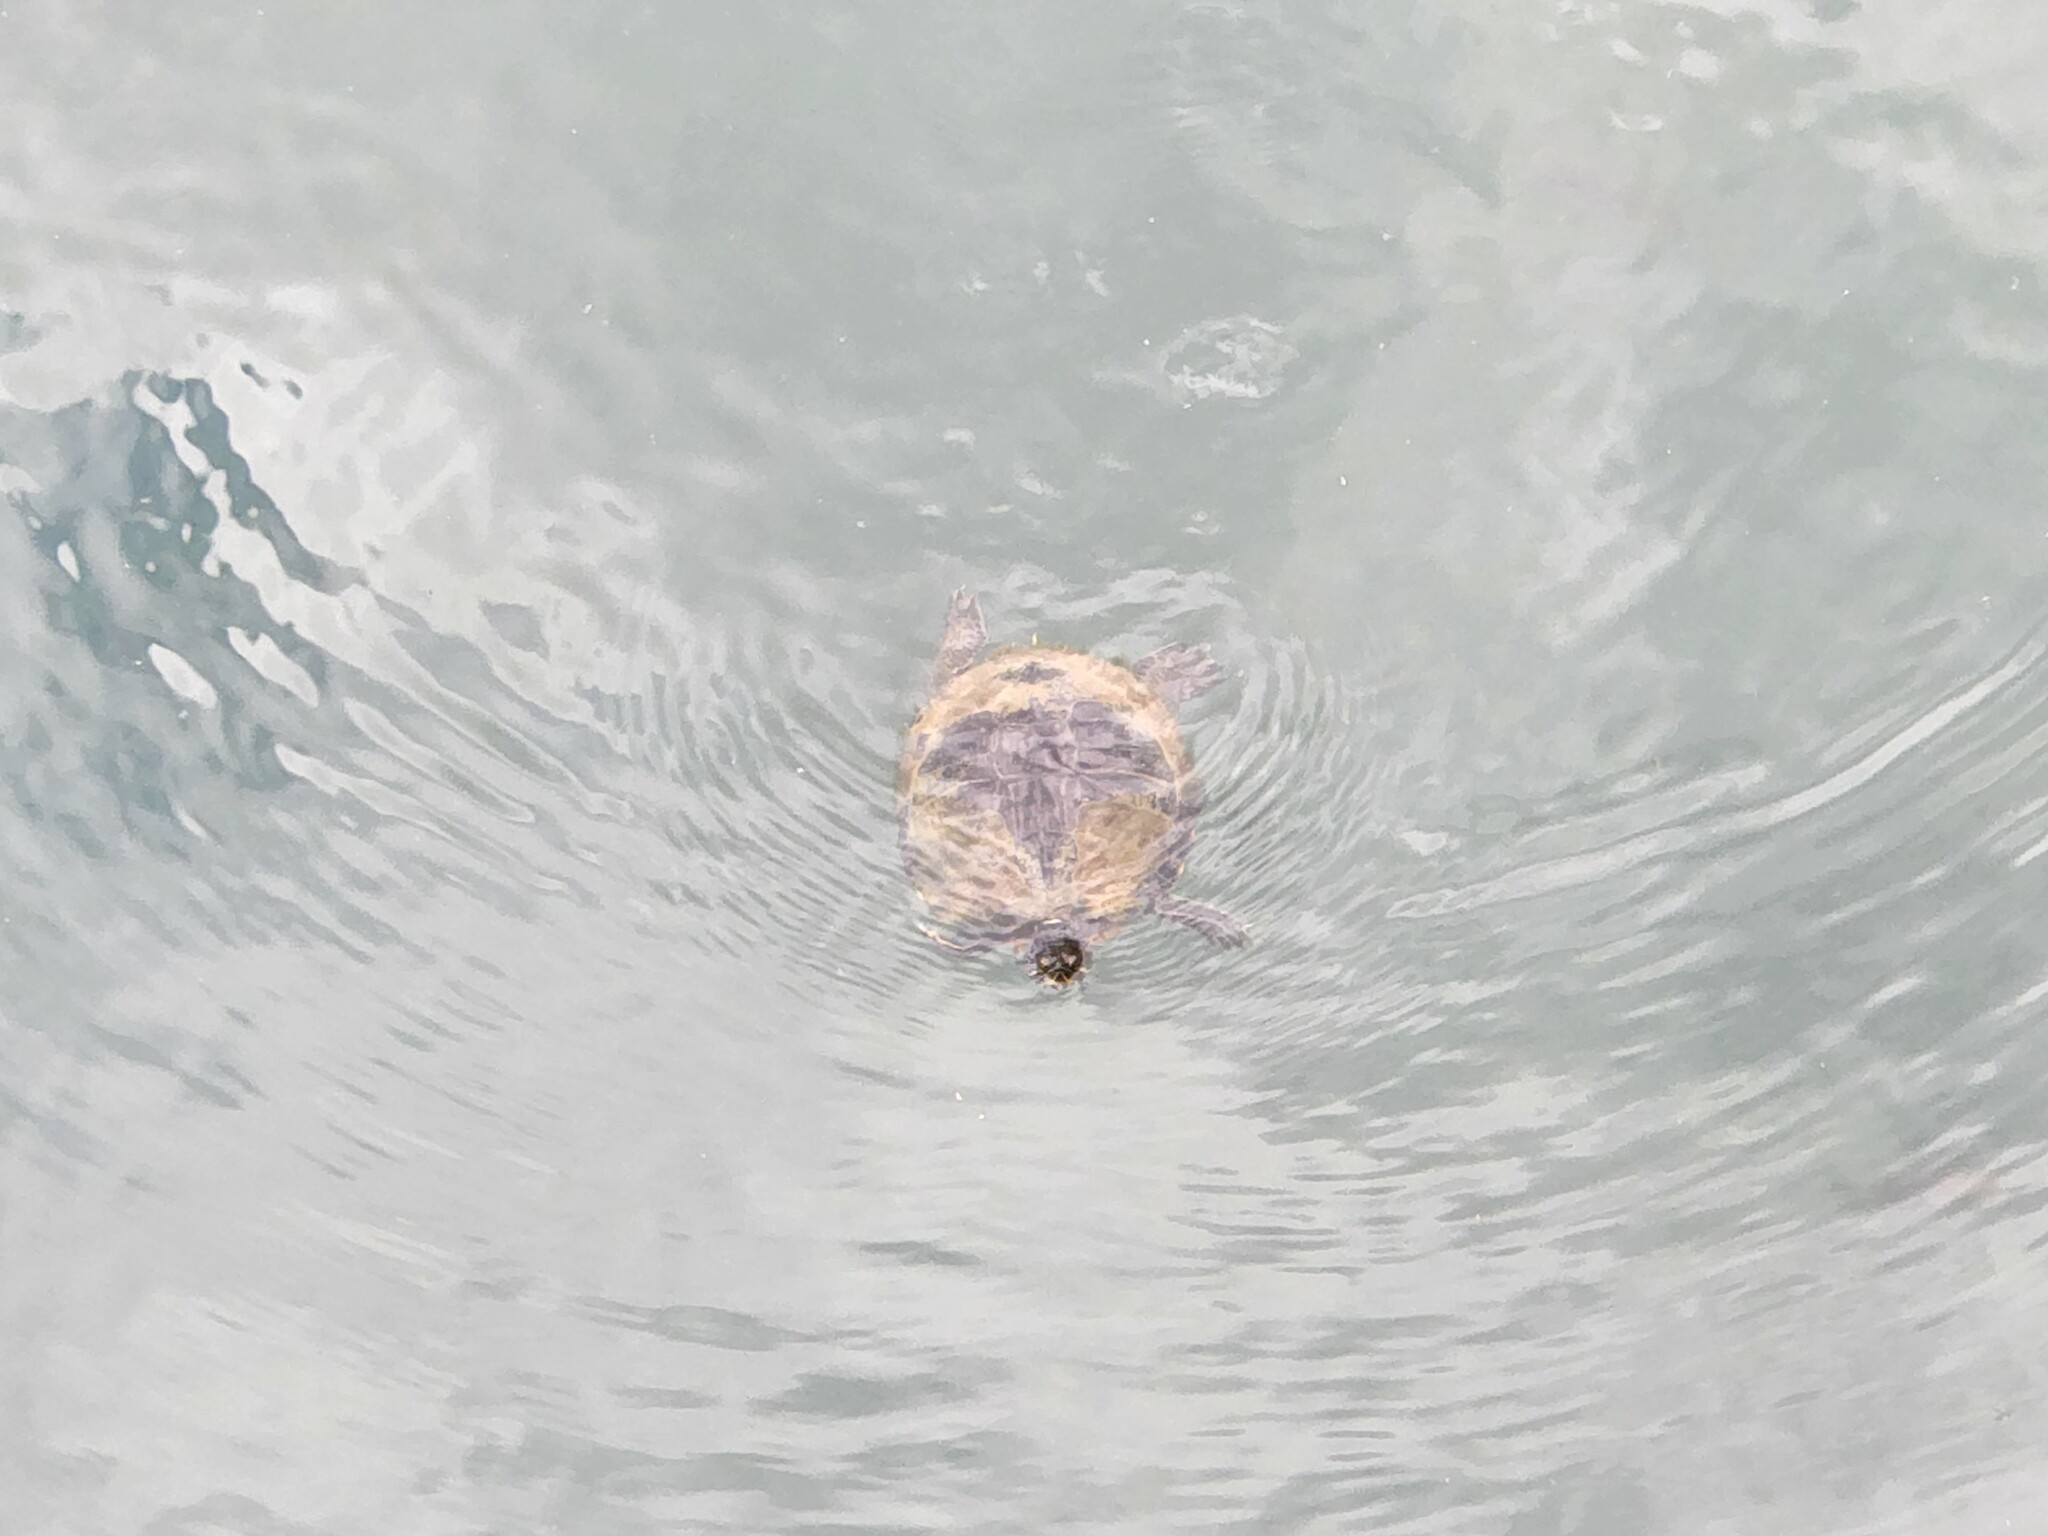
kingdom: Animalia
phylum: Chordata
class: Testudines
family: Emydidae
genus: Trachemys
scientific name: Trachemys scripta
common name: Slider
